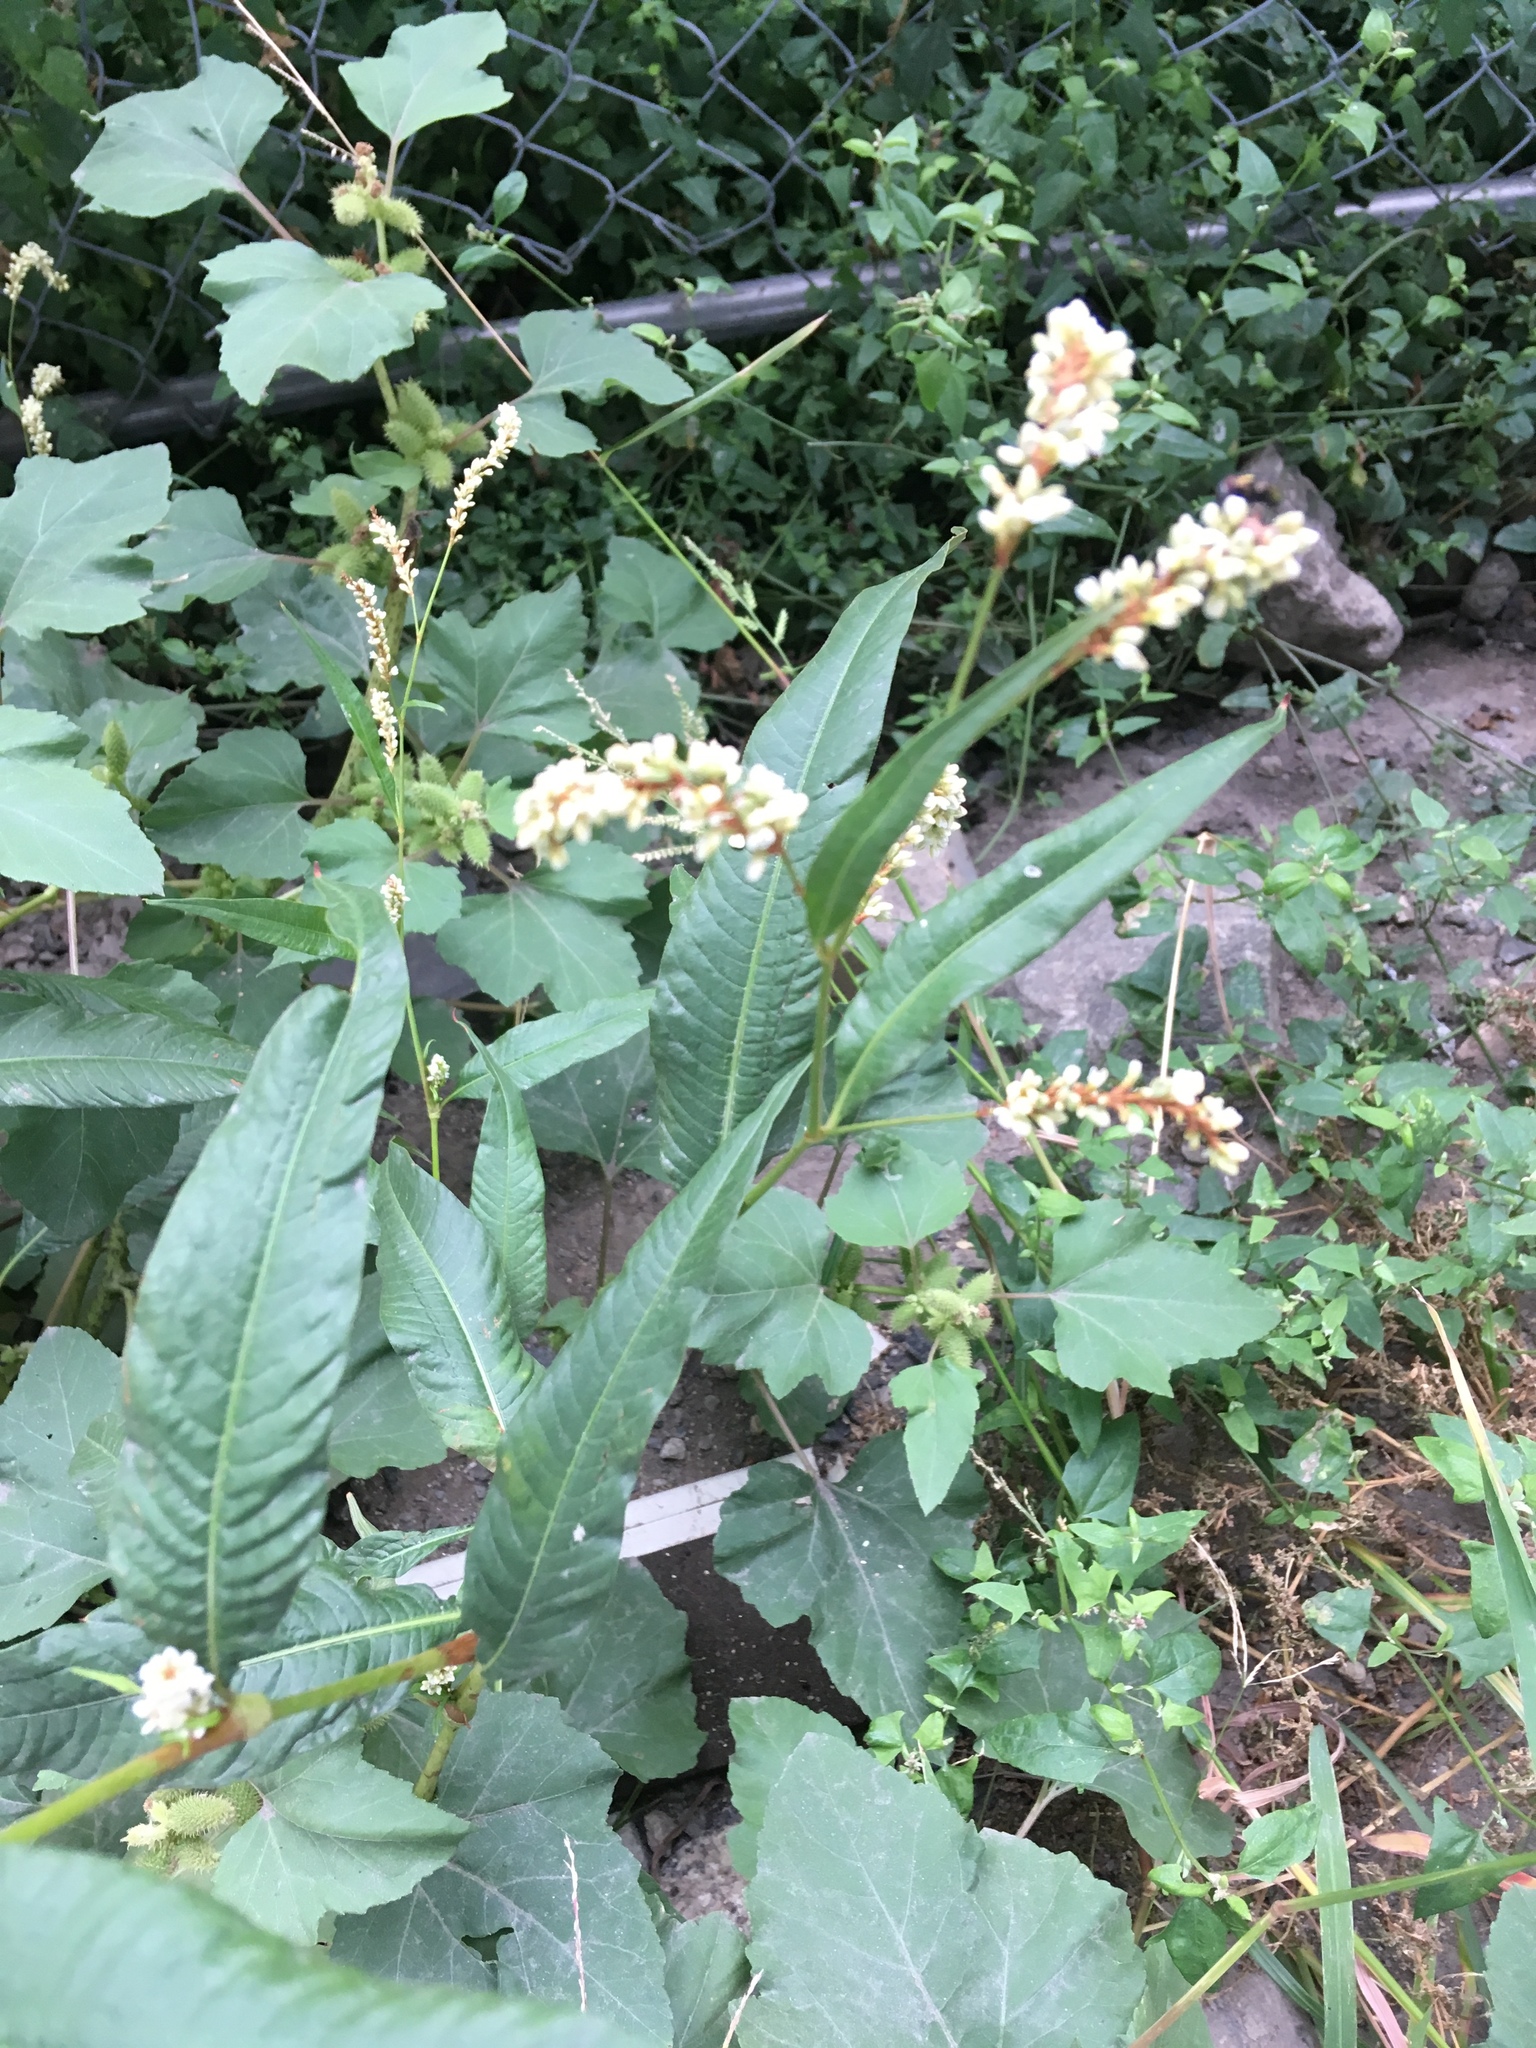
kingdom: Plantae
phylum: Tracheophyta
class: Magnoliopsida
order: Caryophyllales
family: Polygonaceae
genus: Persicaria
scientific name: Persicaria lapathifolia
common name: Curlytop knotweed
